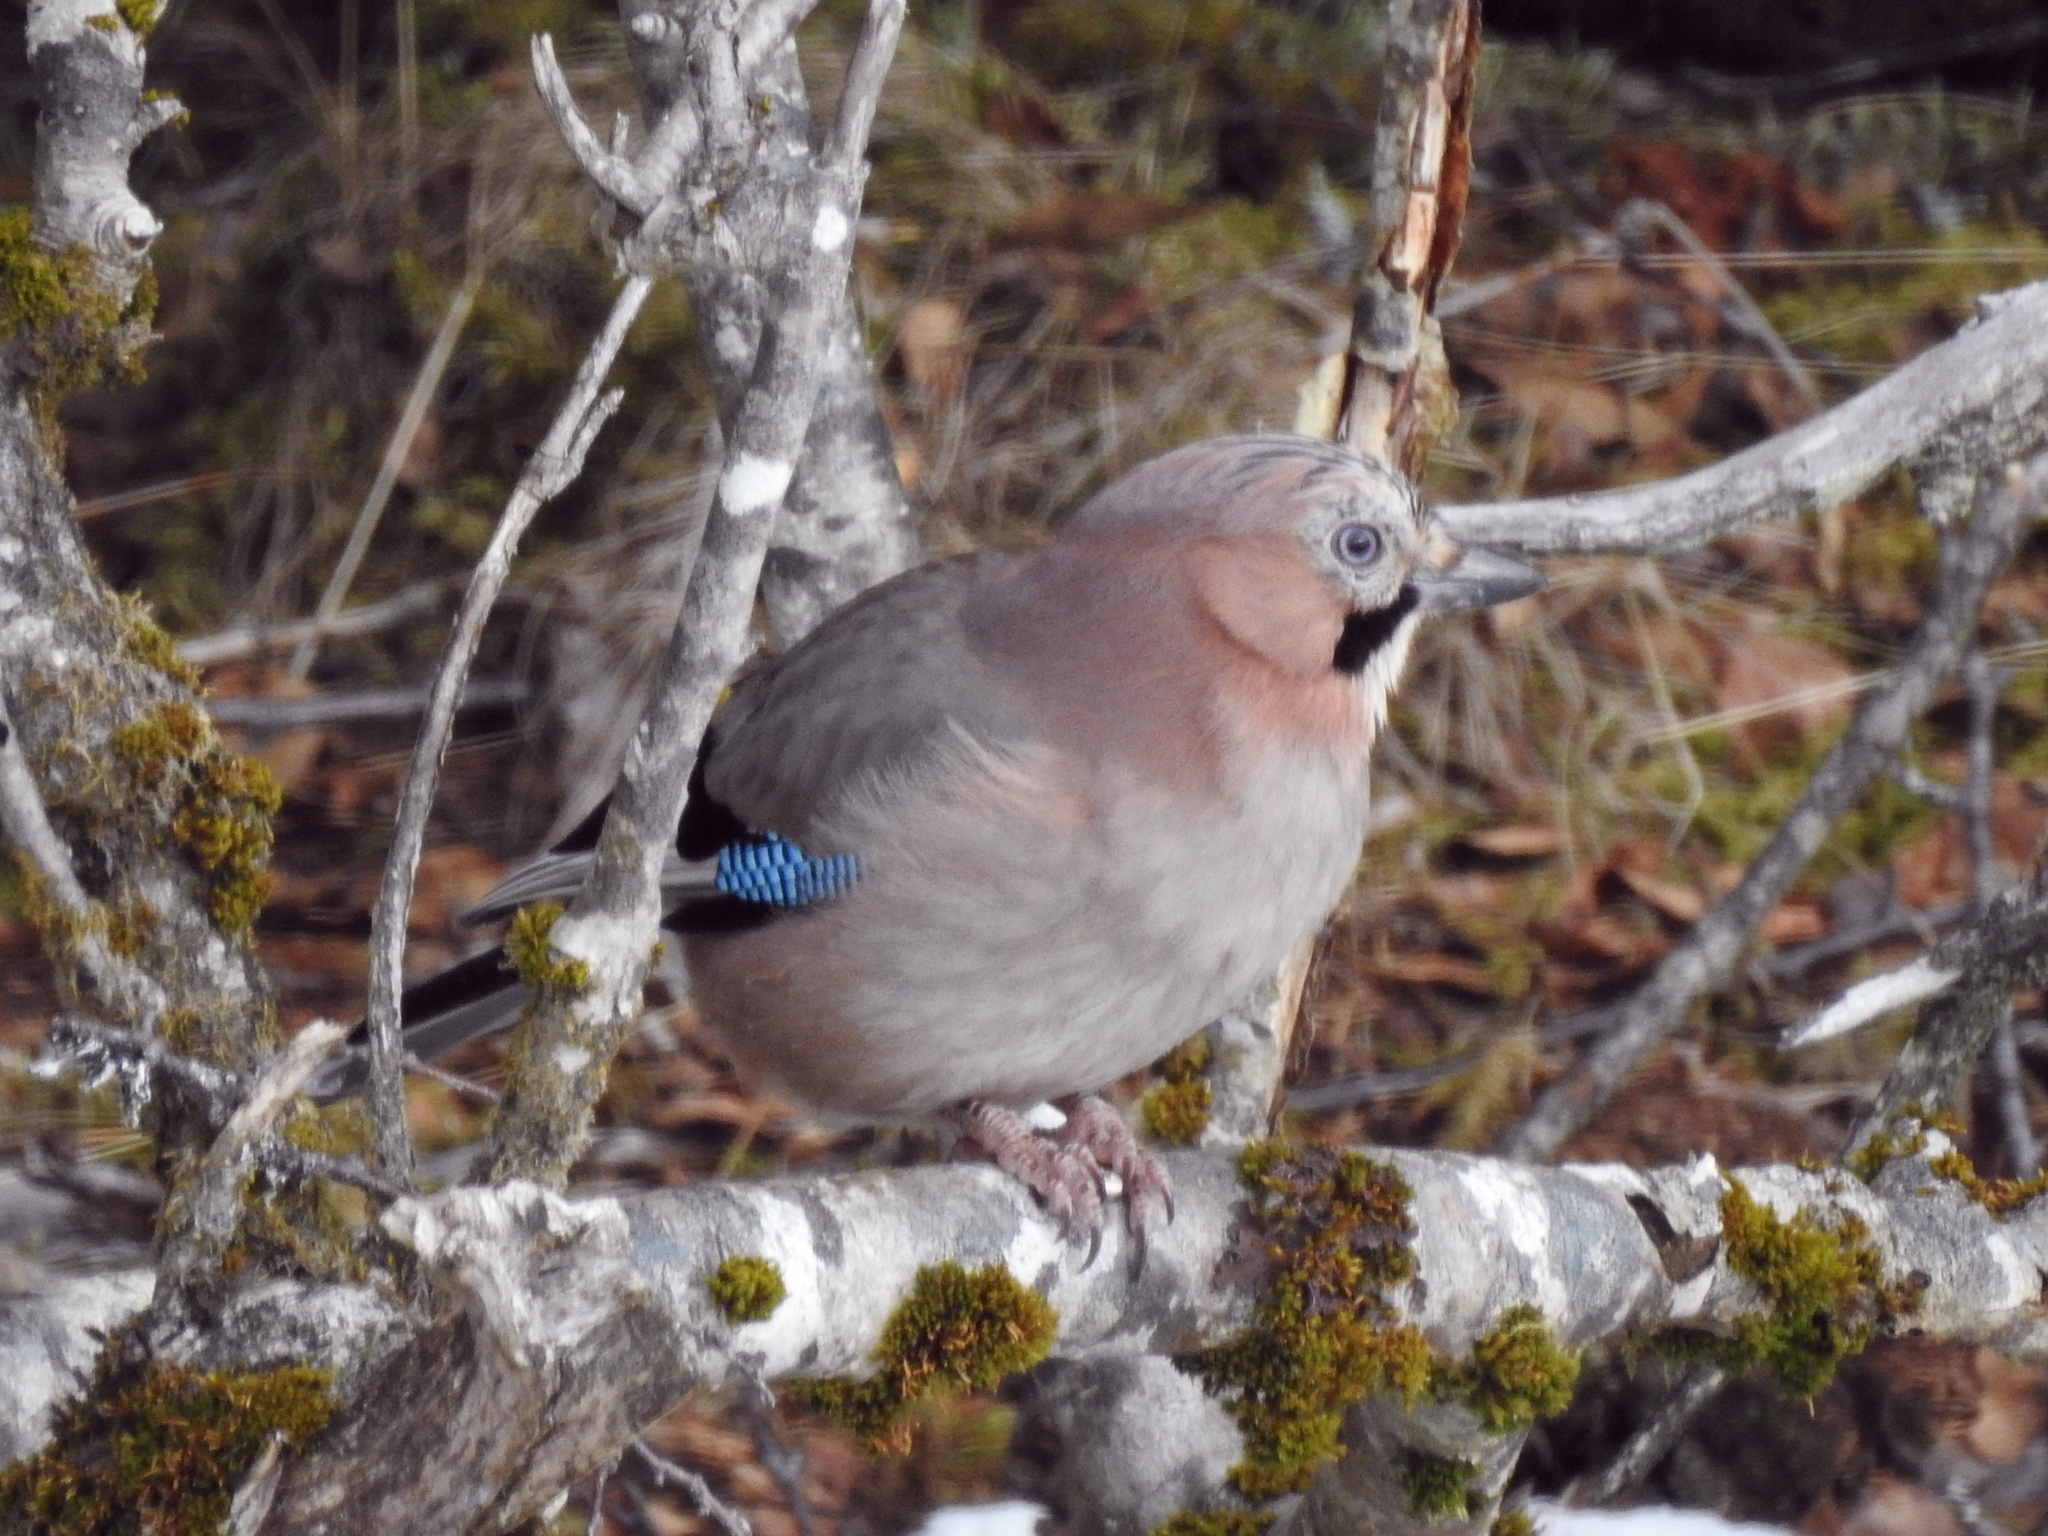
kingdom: Animalia
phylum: Chordata
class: Aves
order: Passeriformes
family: Corvidae
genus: Garrulus
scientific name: Garrulus glandarius
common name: Eurasian jay
